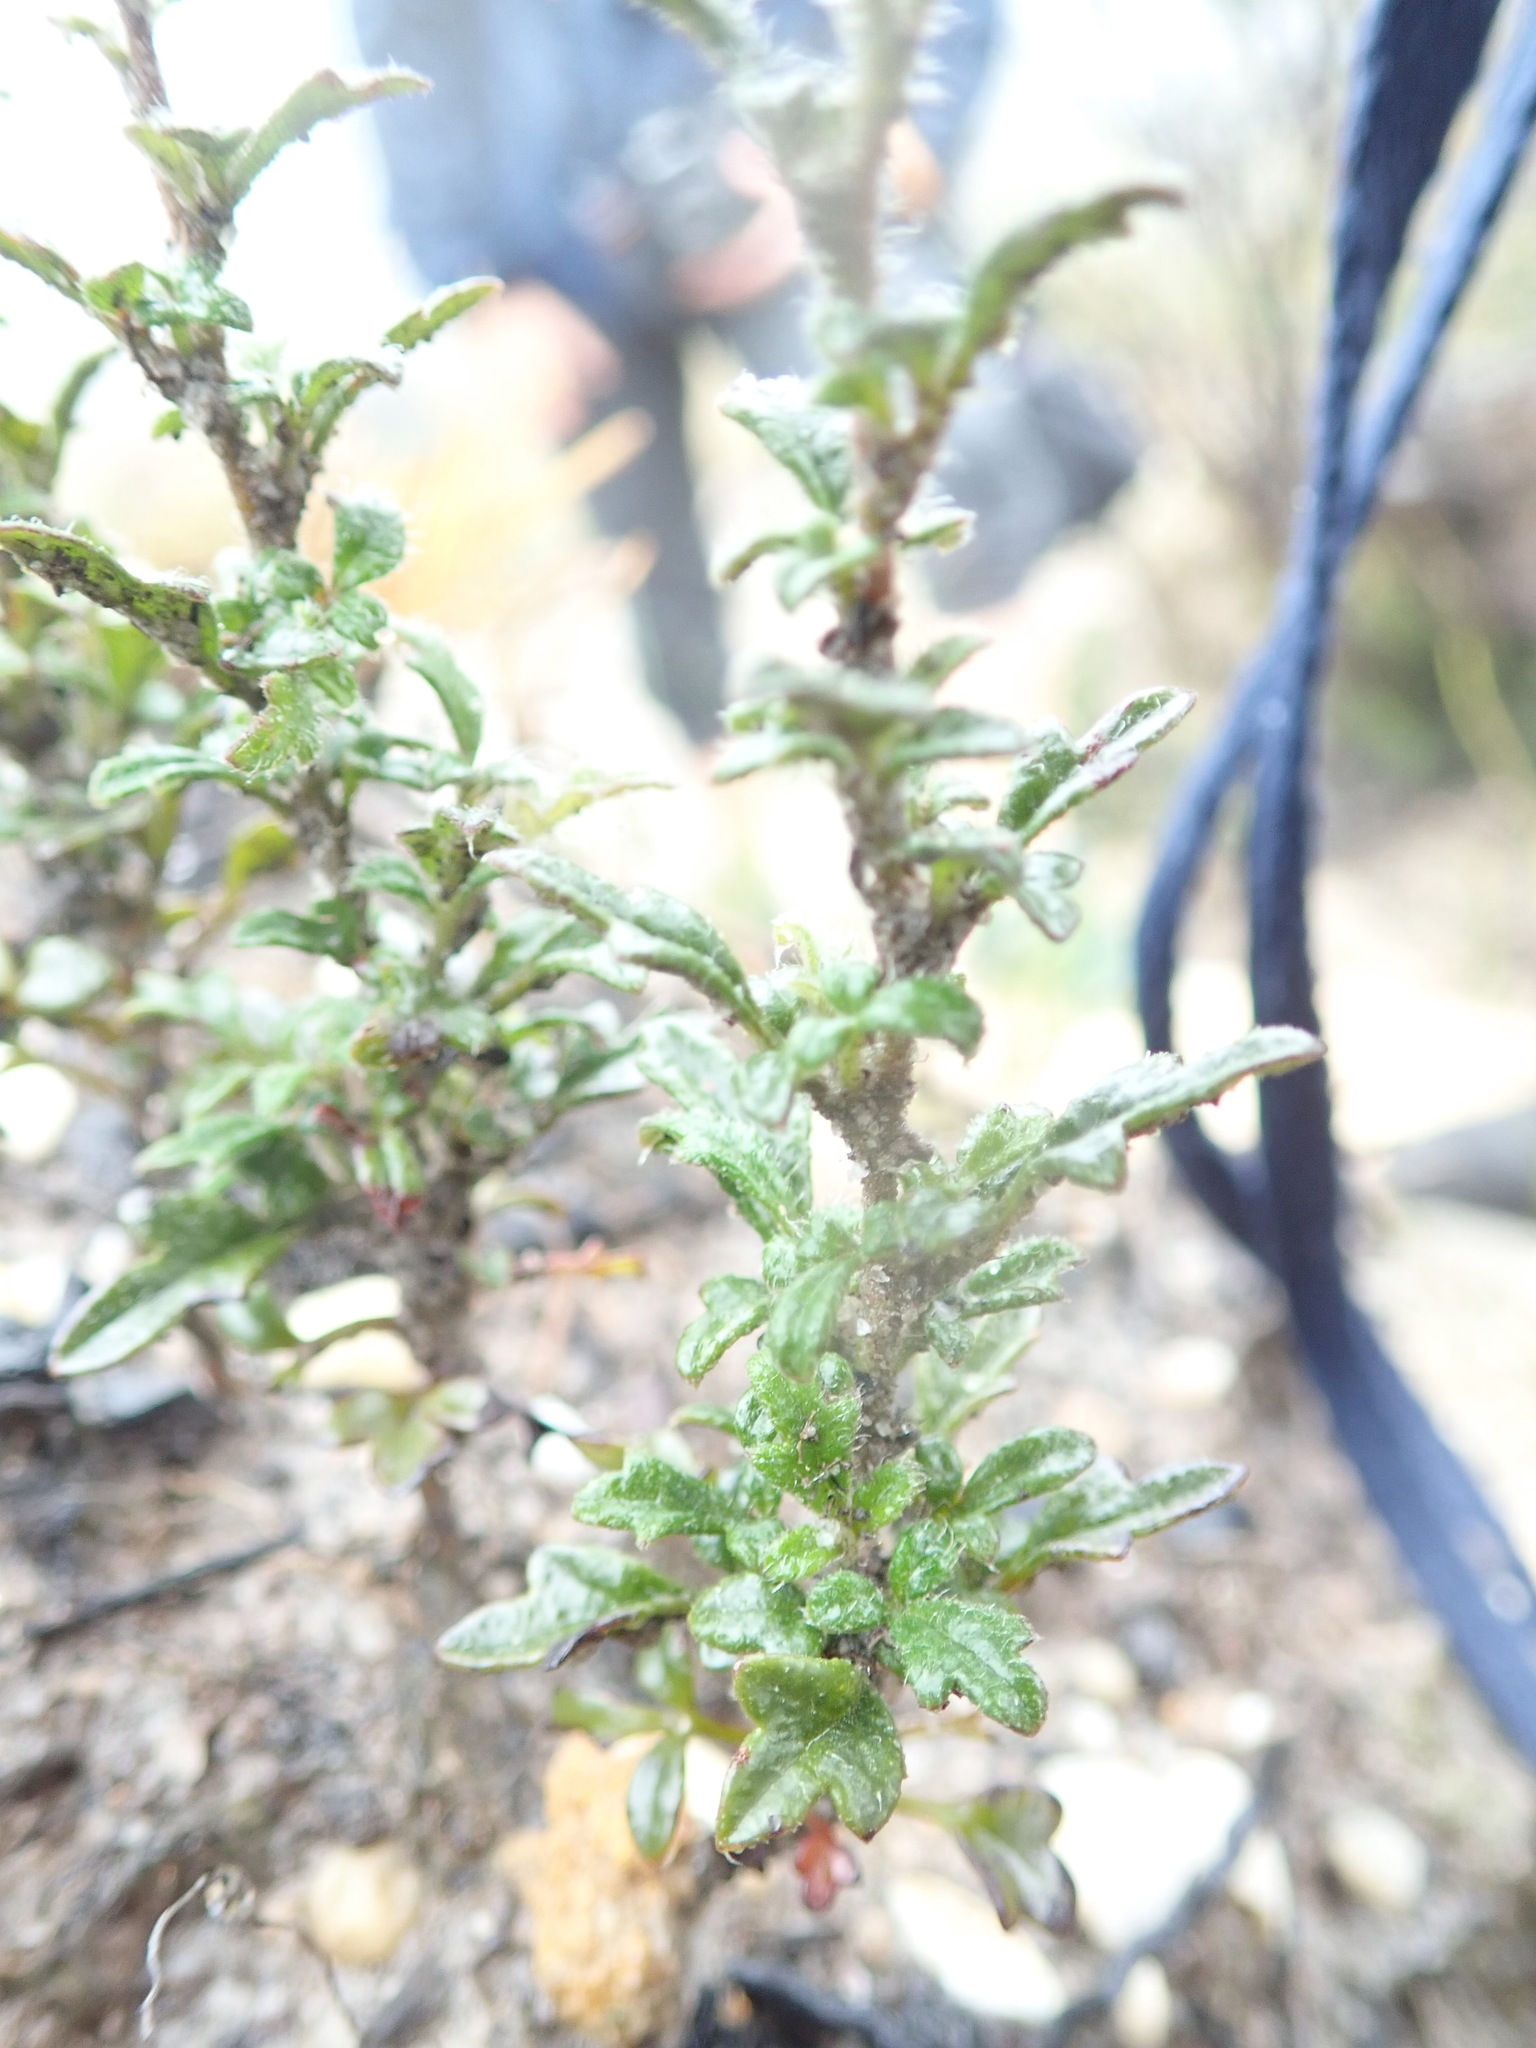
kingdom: Plantae
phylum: Tracheophyta
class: Magnoliopsida
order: Apiales
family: Apiaceae
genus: Xanthosia
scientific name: Xanthosia pilosa
